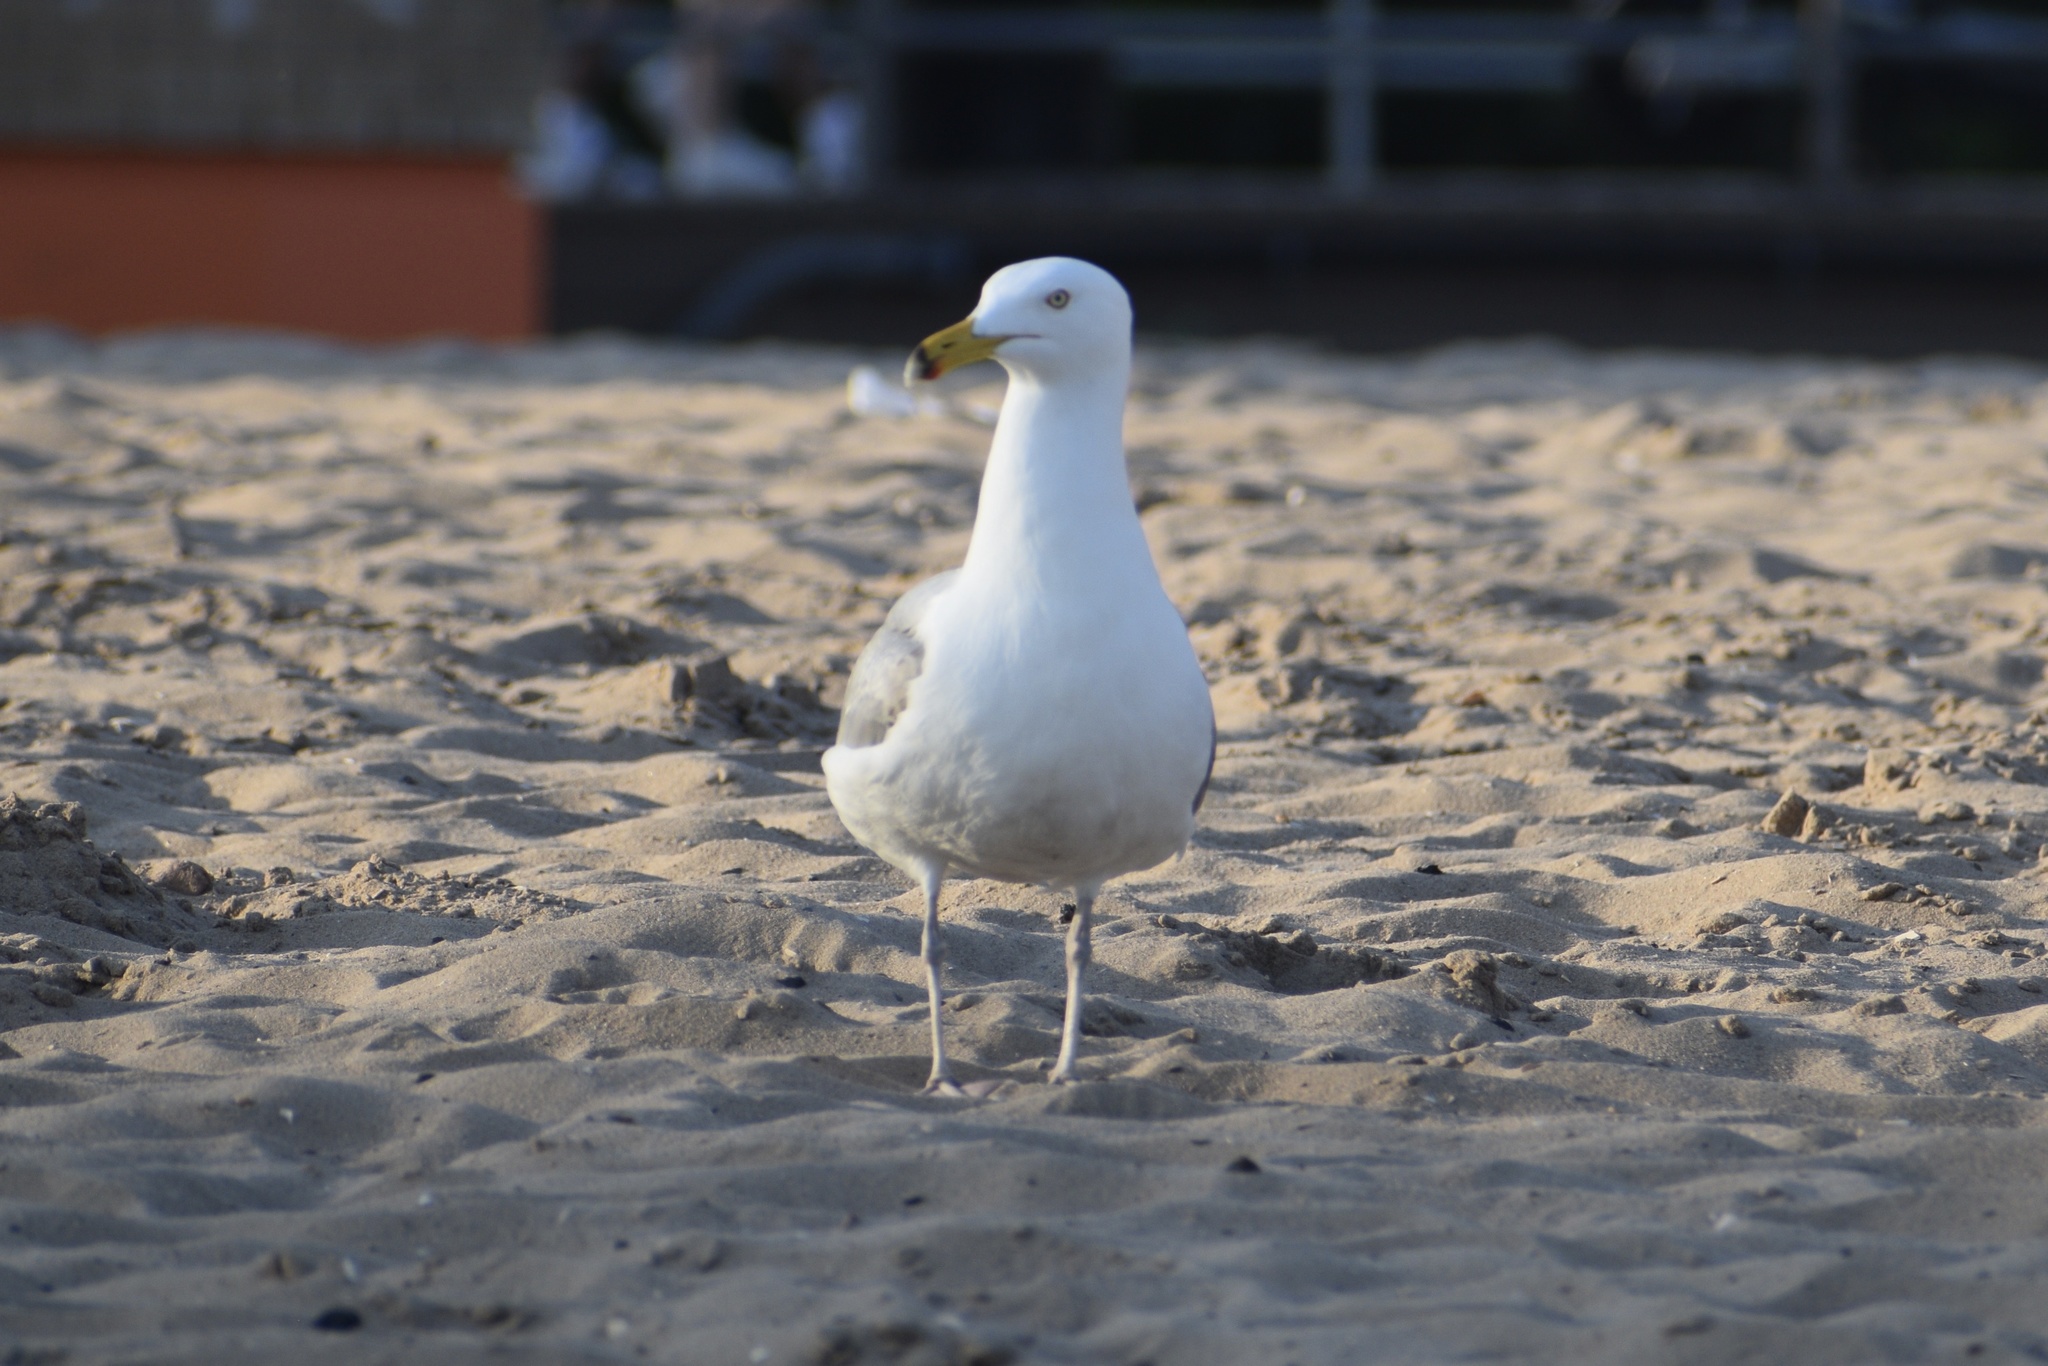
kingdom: Animalia
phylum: Chordata
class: Aves
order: Charadriiformes
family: Laridae
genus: Larus
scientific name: Larus argentatus
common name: Herring gull
